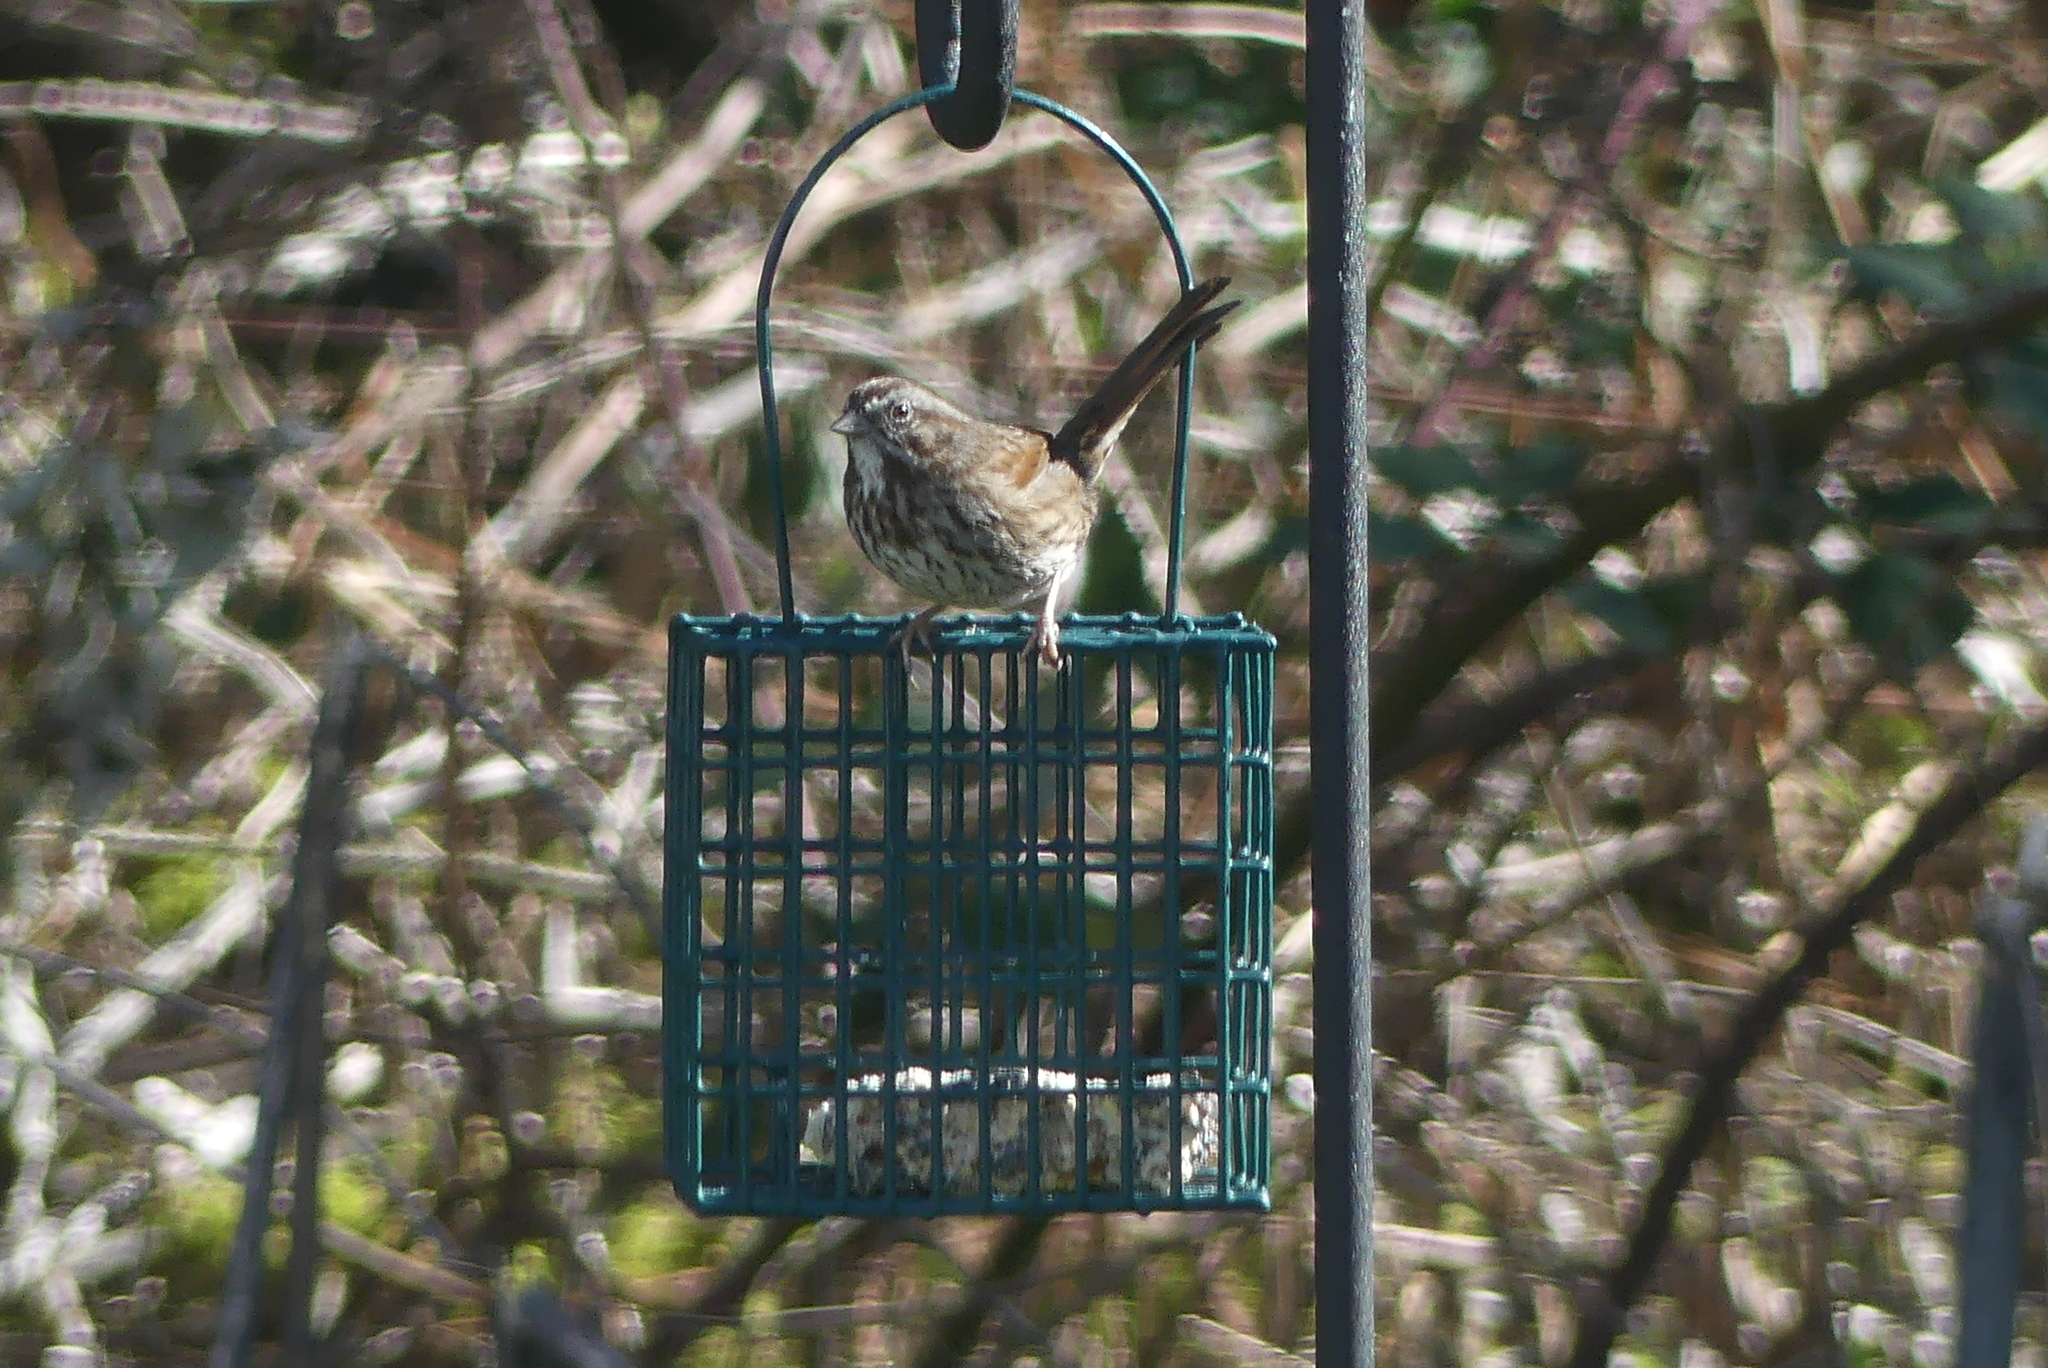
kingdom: Animalia
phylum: Chordata
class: Aves
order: Passeriformes
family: Passerellidae
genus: Melospiza
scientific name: Melospiza melodia
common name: Song sparrow
